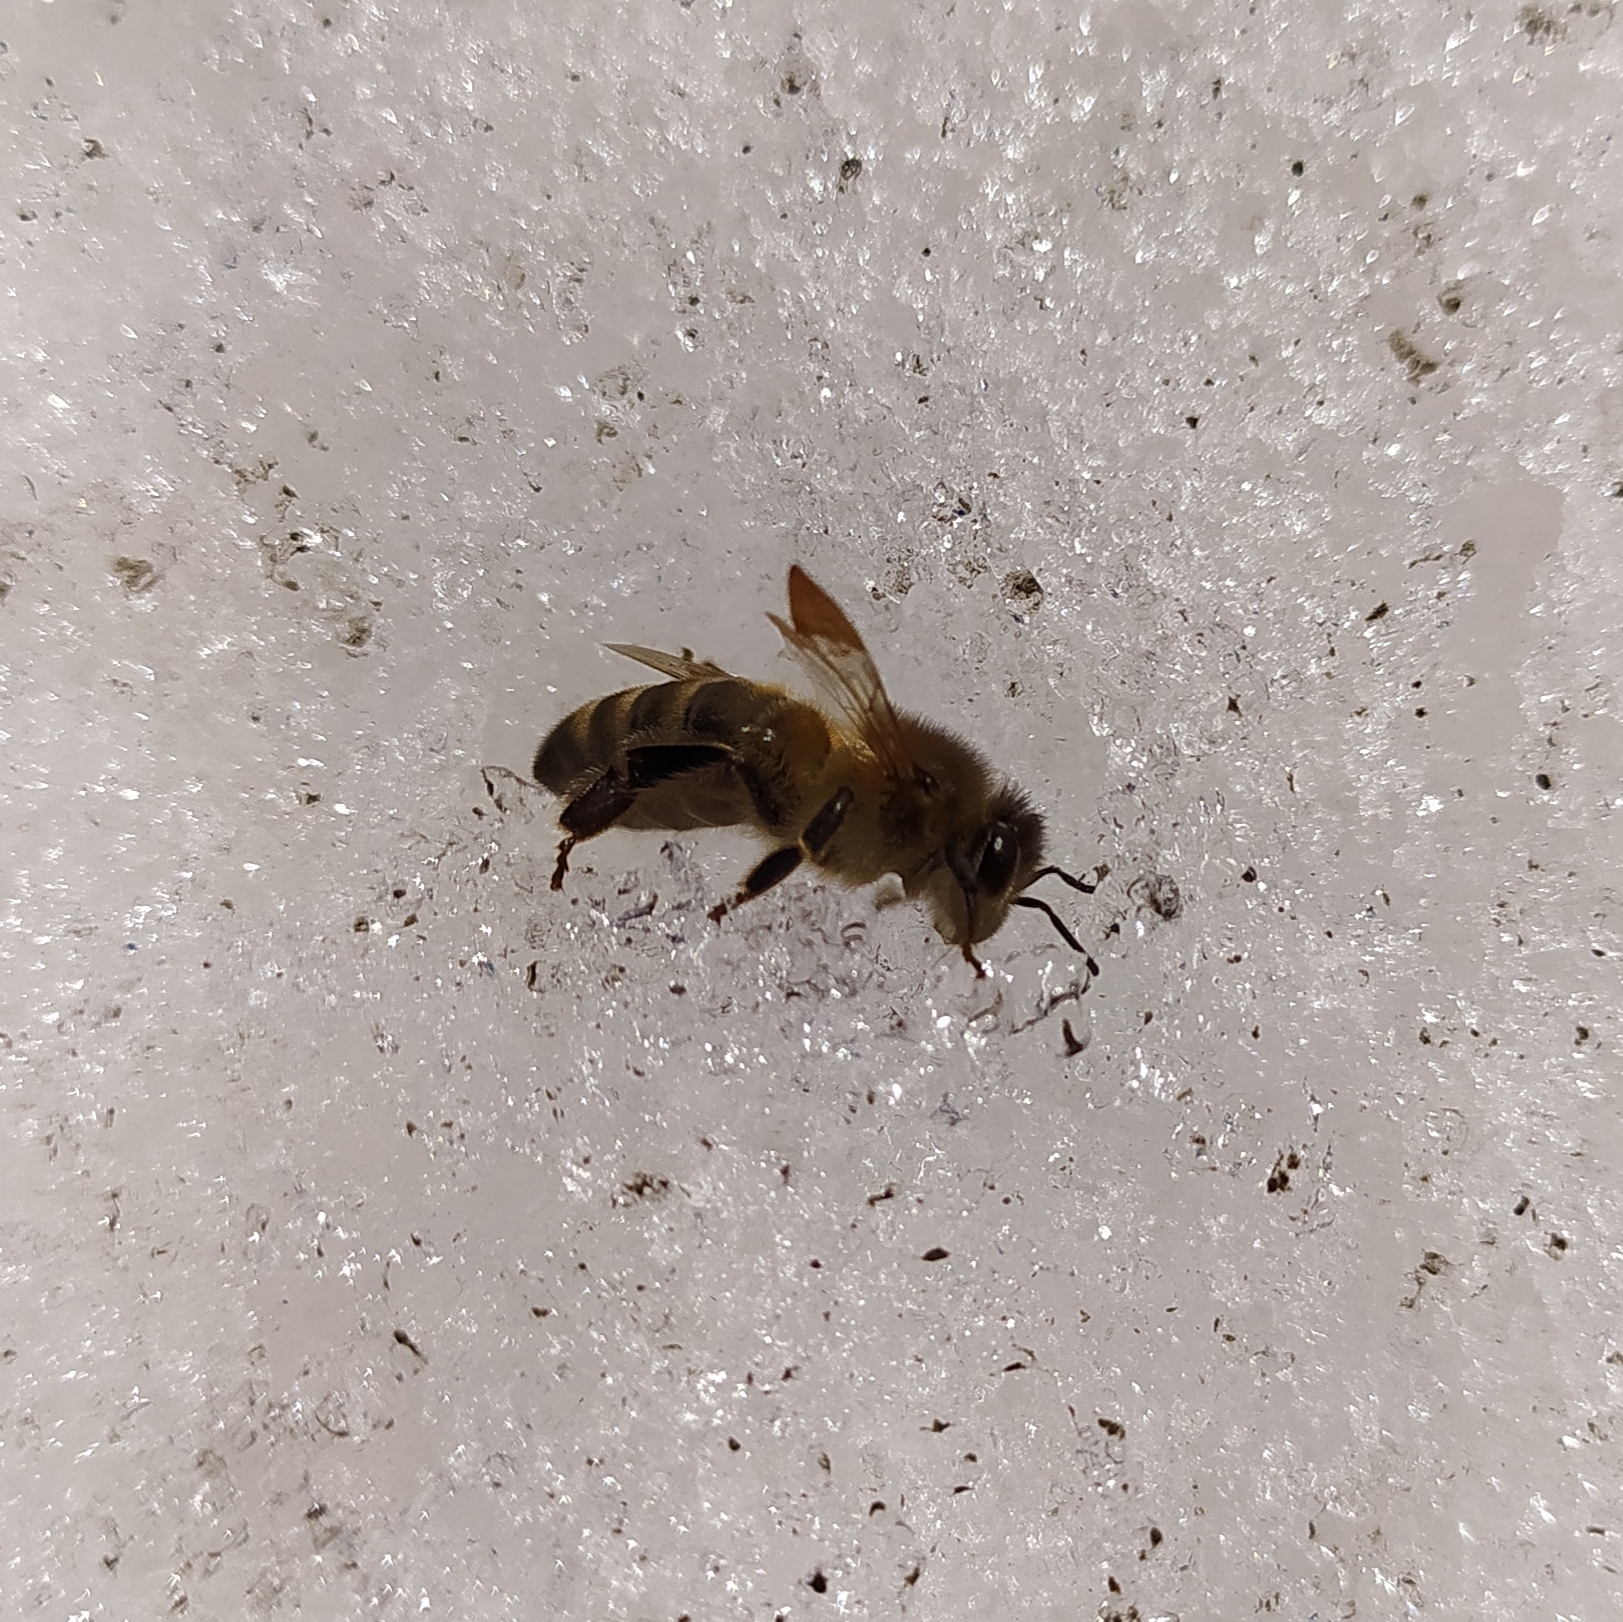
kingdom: Animalia
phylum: Arthropoda
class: Insecta
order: Hymenoptera
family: Apidae
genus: Apis
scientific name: Apis mellifera
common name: Honey bee
